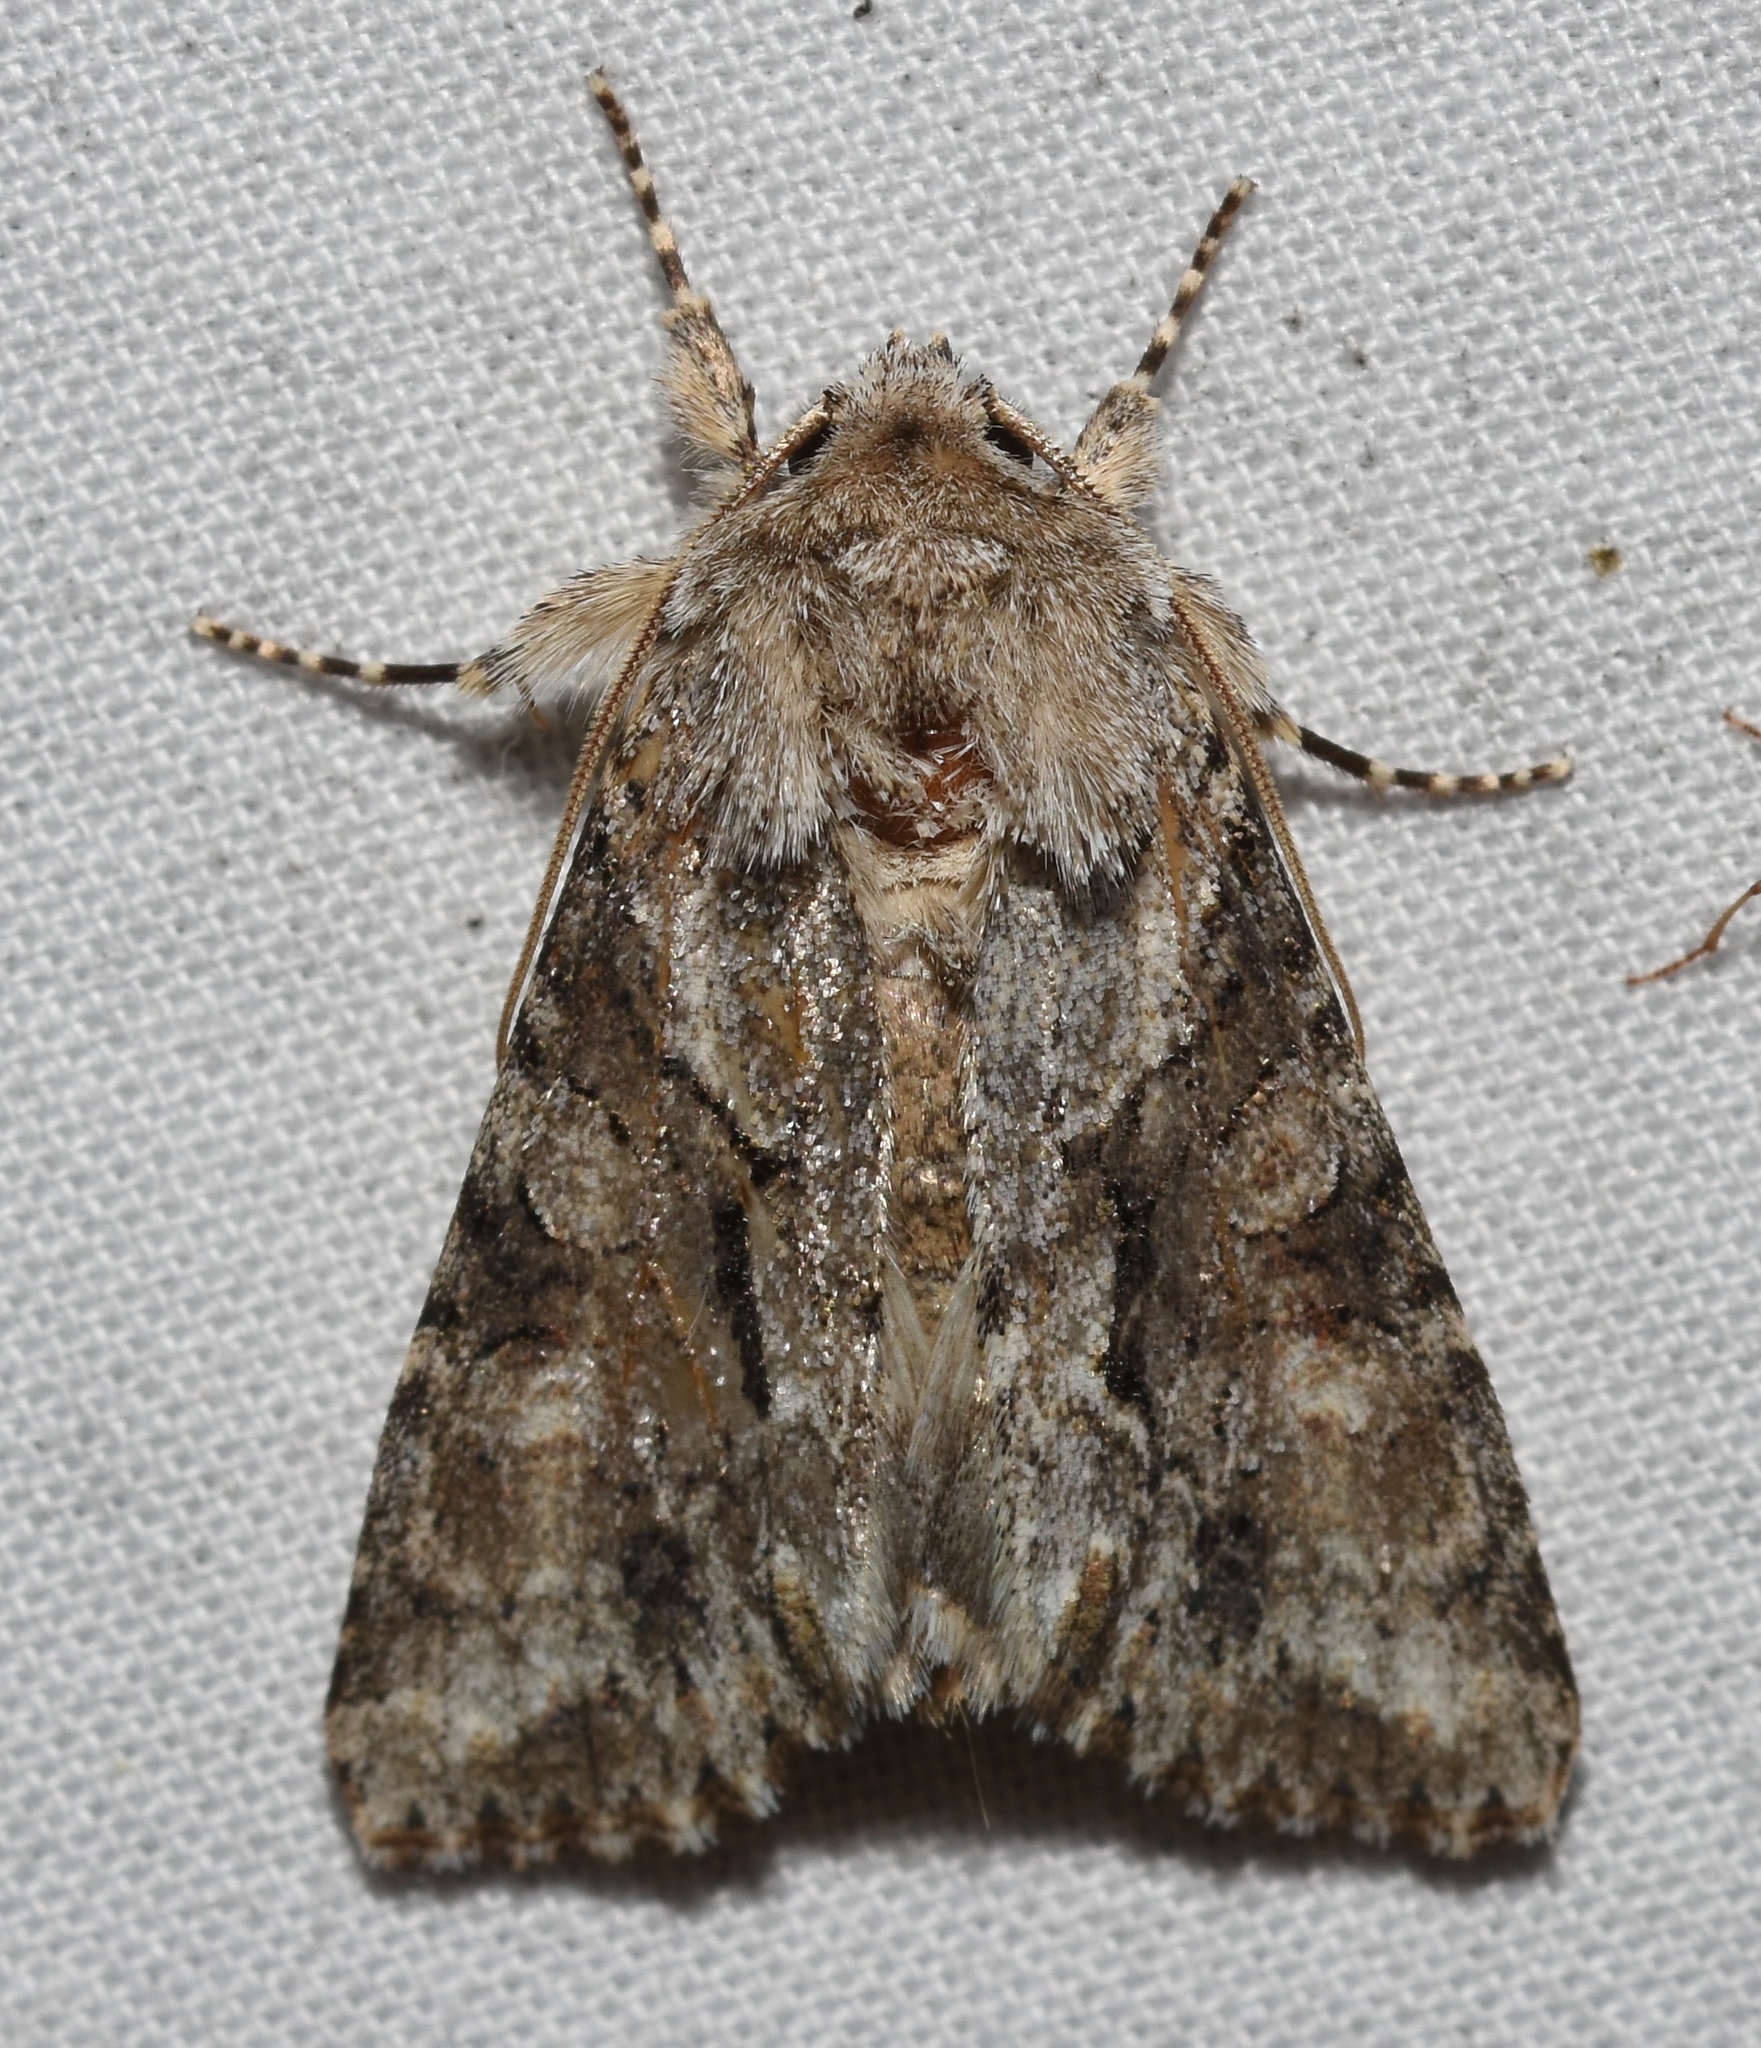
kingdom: Animalia
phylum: Arthropoda
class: Insecta
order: Lepidoptera
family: Noctuidae
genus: Achatia
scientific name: Achatia distincta
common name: Distinct quaker
